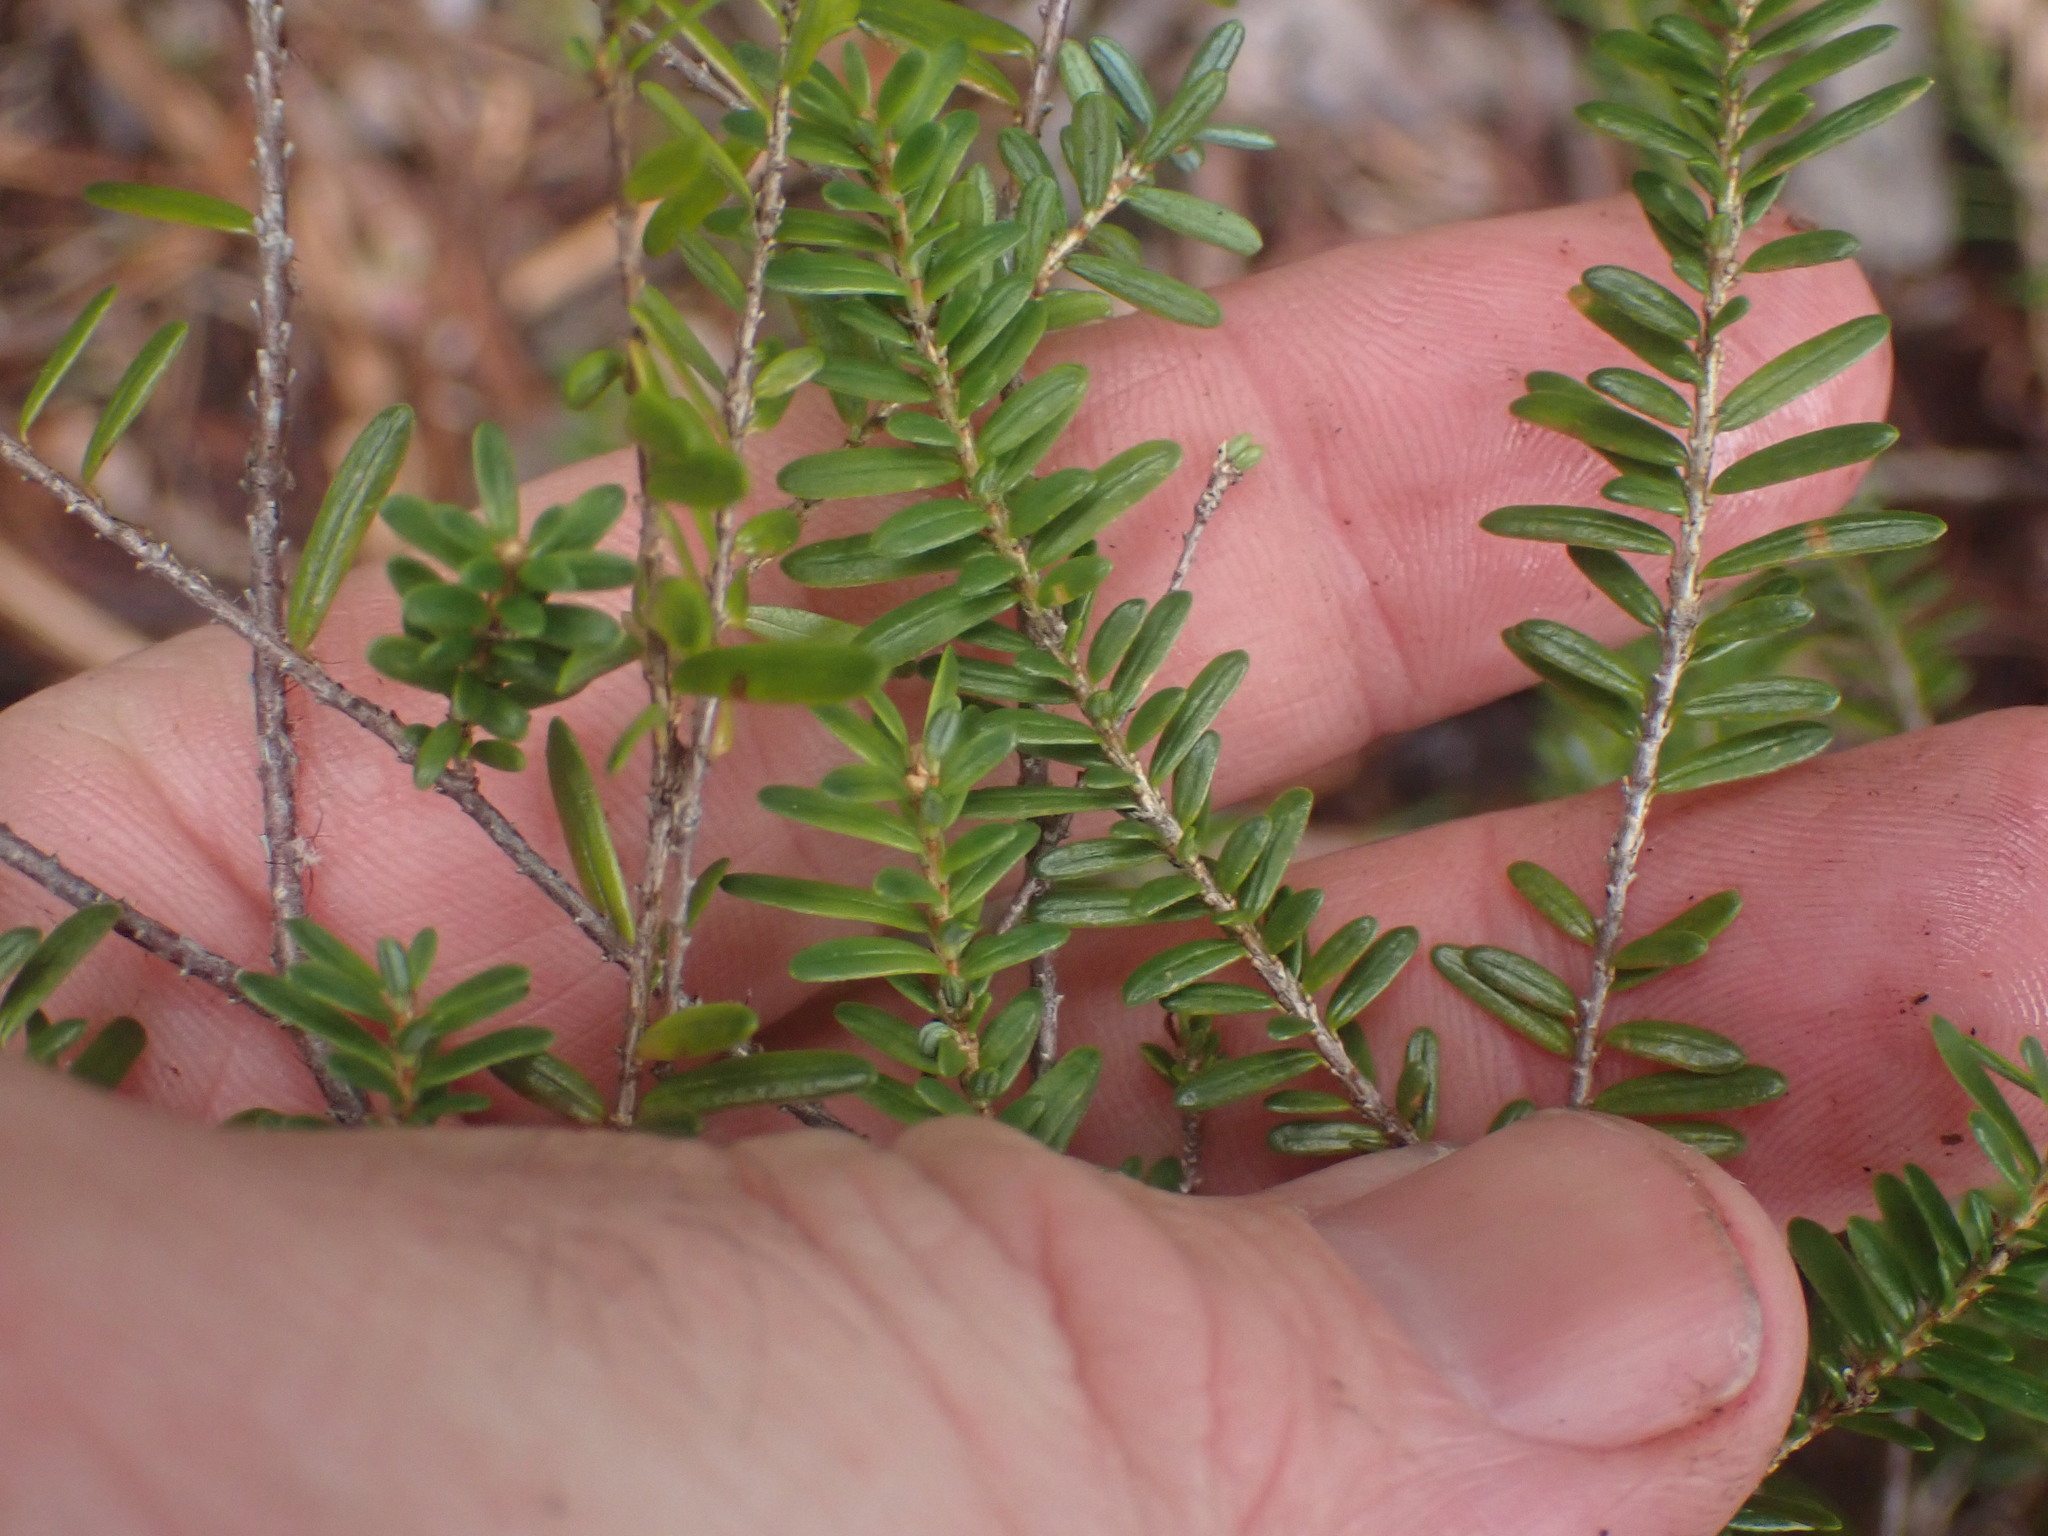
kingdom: Plantae
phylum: Tracheophyta
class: Pinopsida
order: Pinales
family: Pinaceae
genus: Tsuga
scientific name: Tsuga heterophylla
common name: Western hemlock
